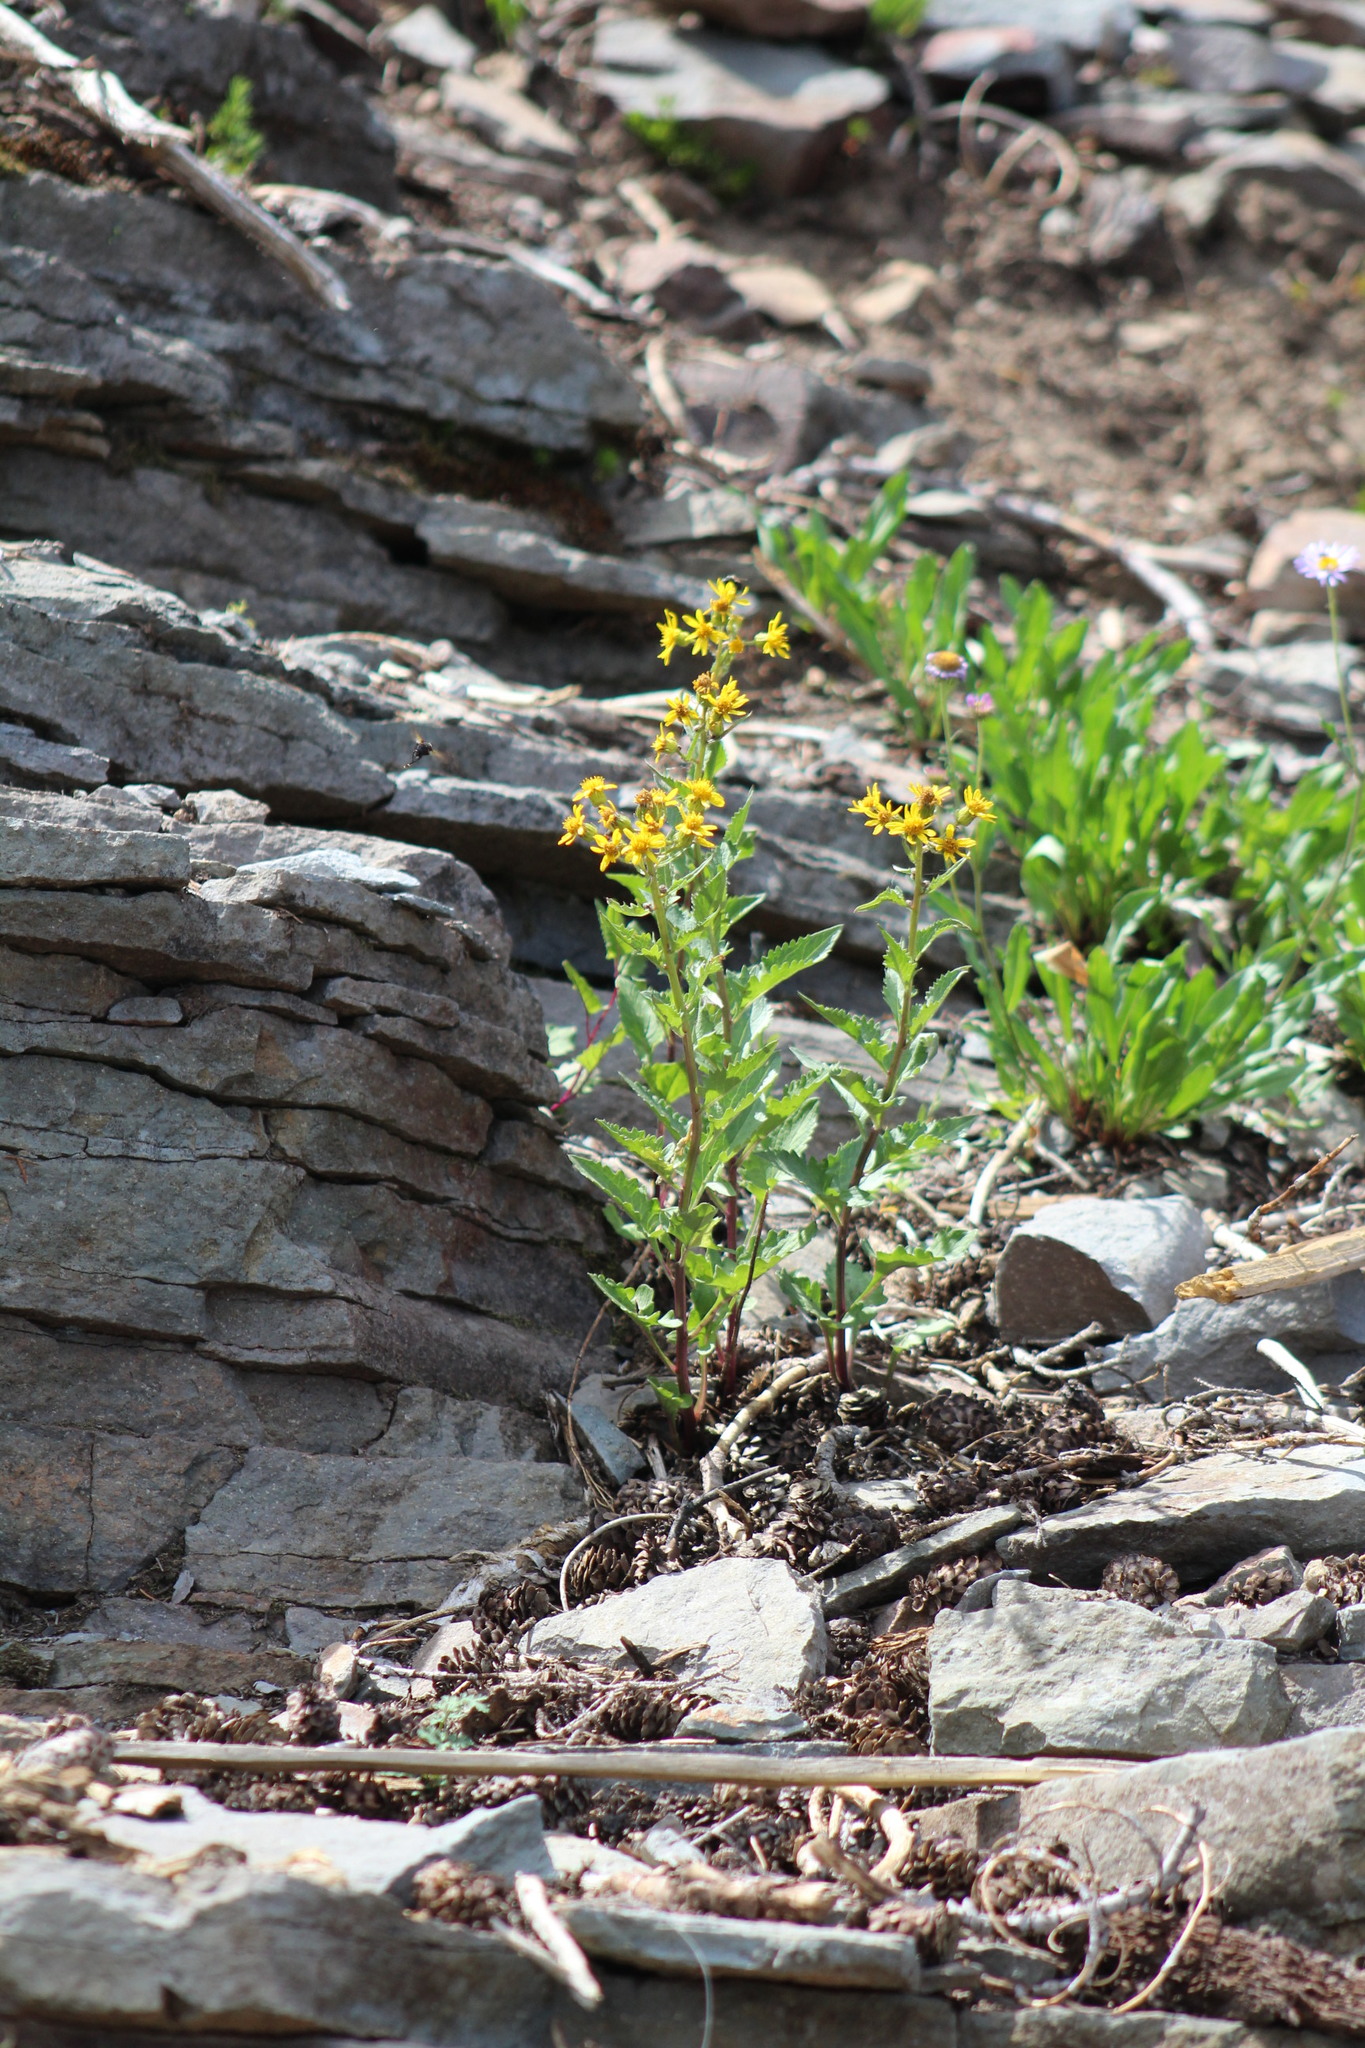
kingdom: Plantae
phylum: Tracheophyta
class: Magnoliopsida
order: Asterales
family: Asteraceae
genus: Senecio
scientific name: Senecio triangularis
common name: Arrowleaf butterweed
